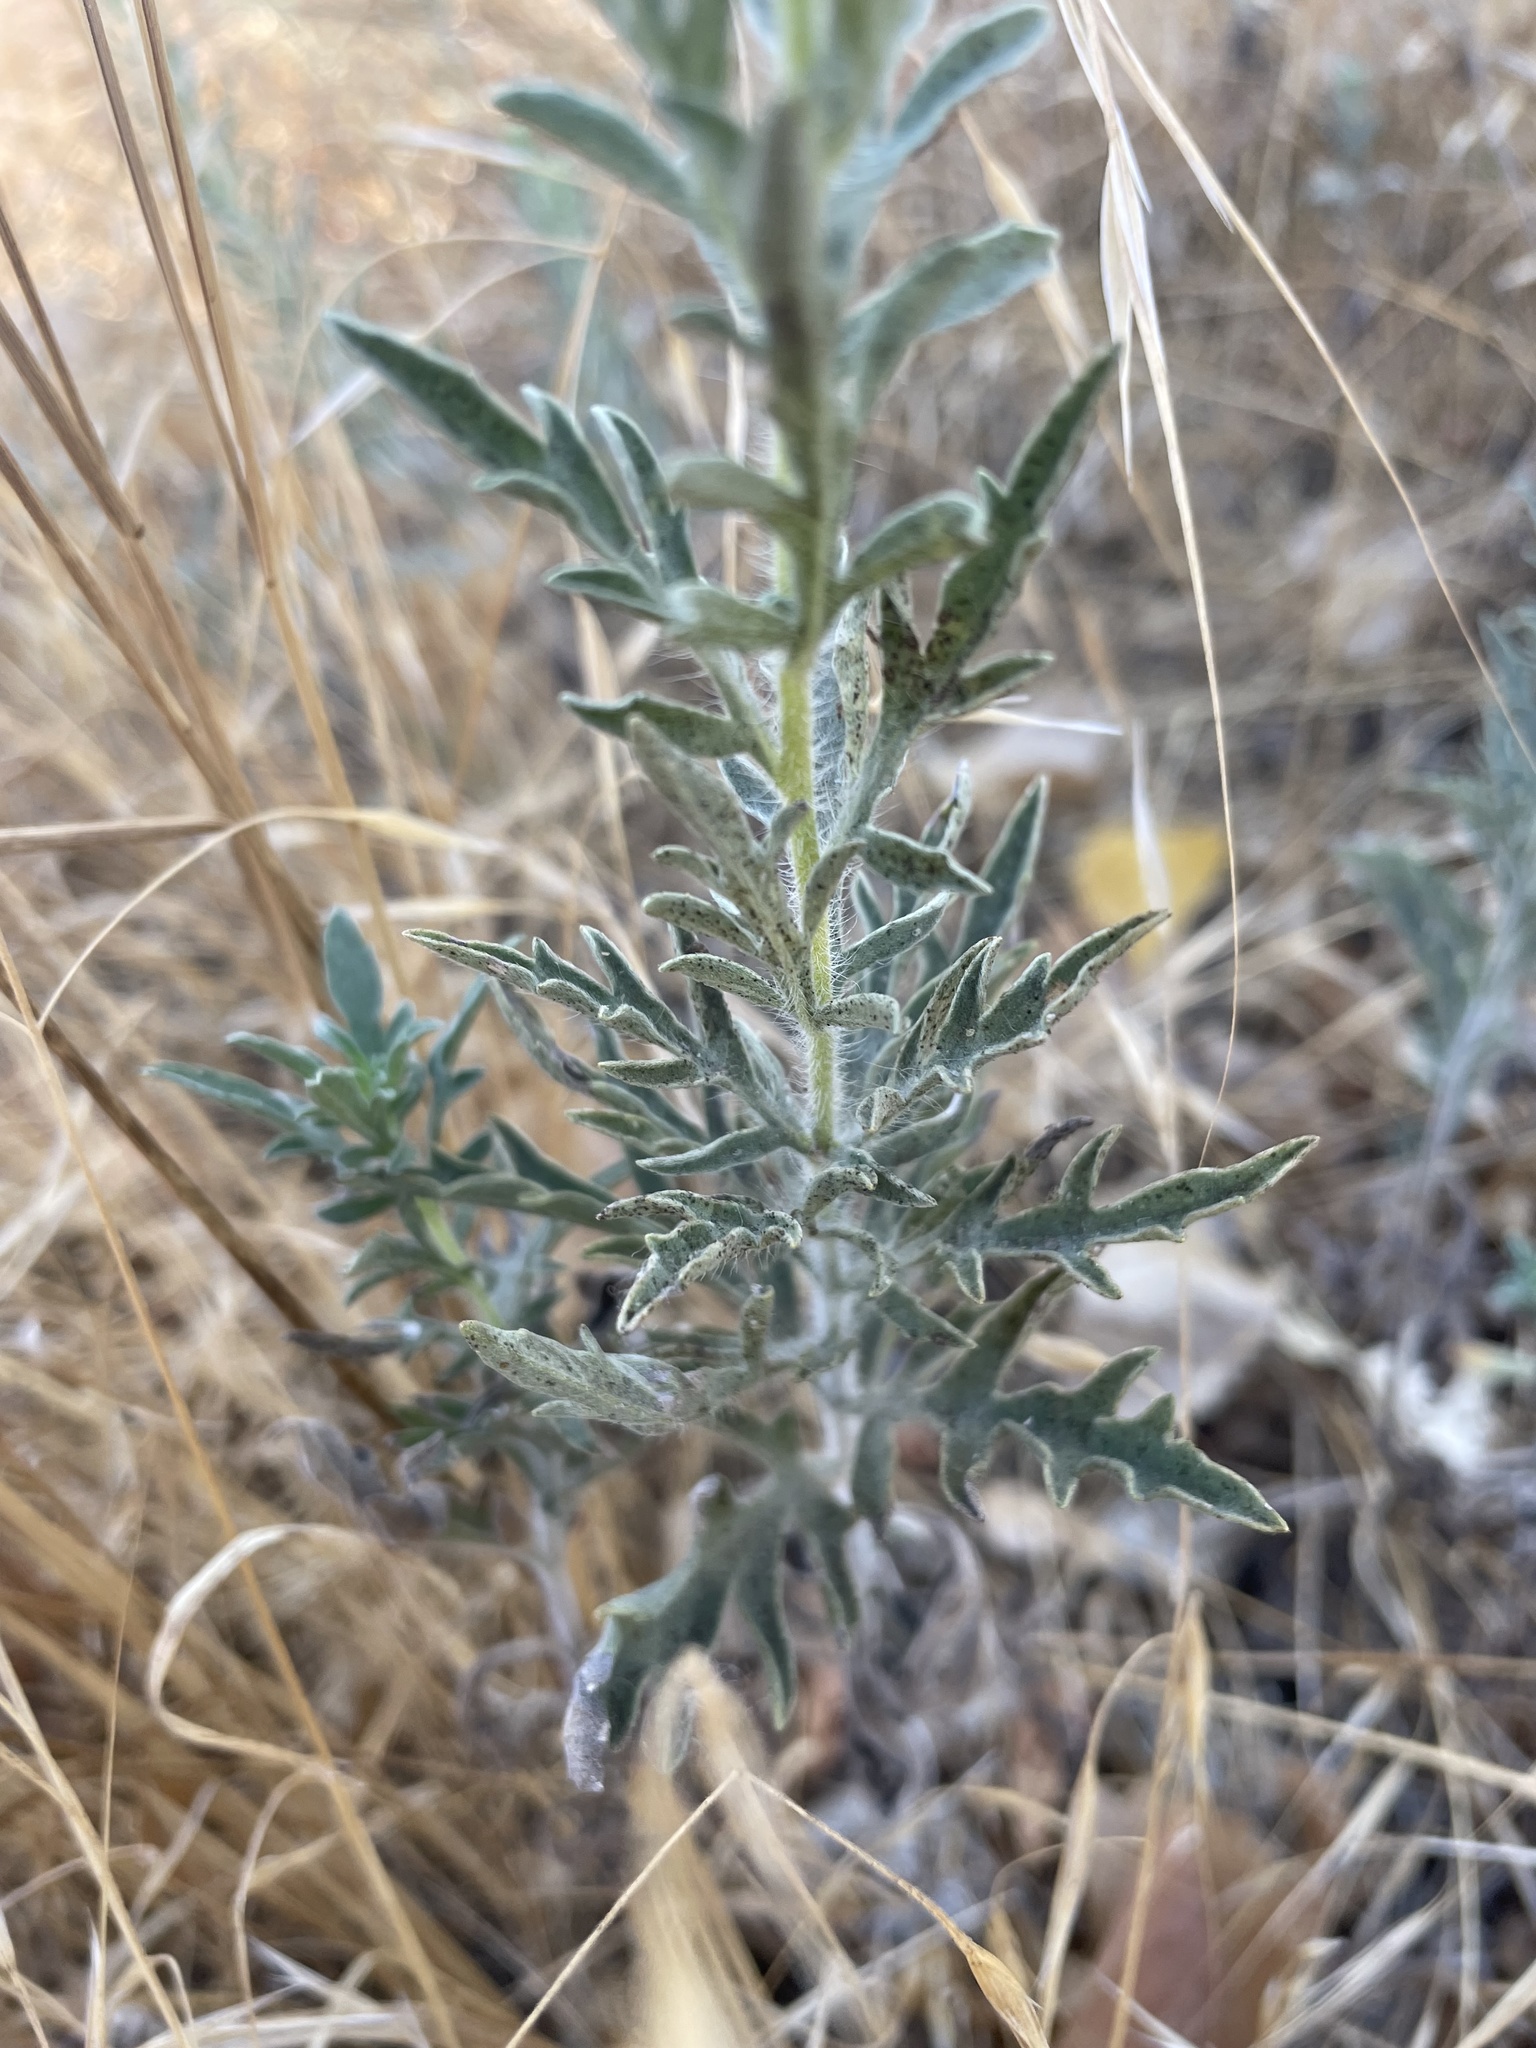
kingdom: Plantae
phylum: Tracheophyta
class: Magnoliopsida
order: Asterales
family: Asteraceae
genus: Ambrosia
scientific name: Ambrosia psilostachya
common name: Perennial ragweed
